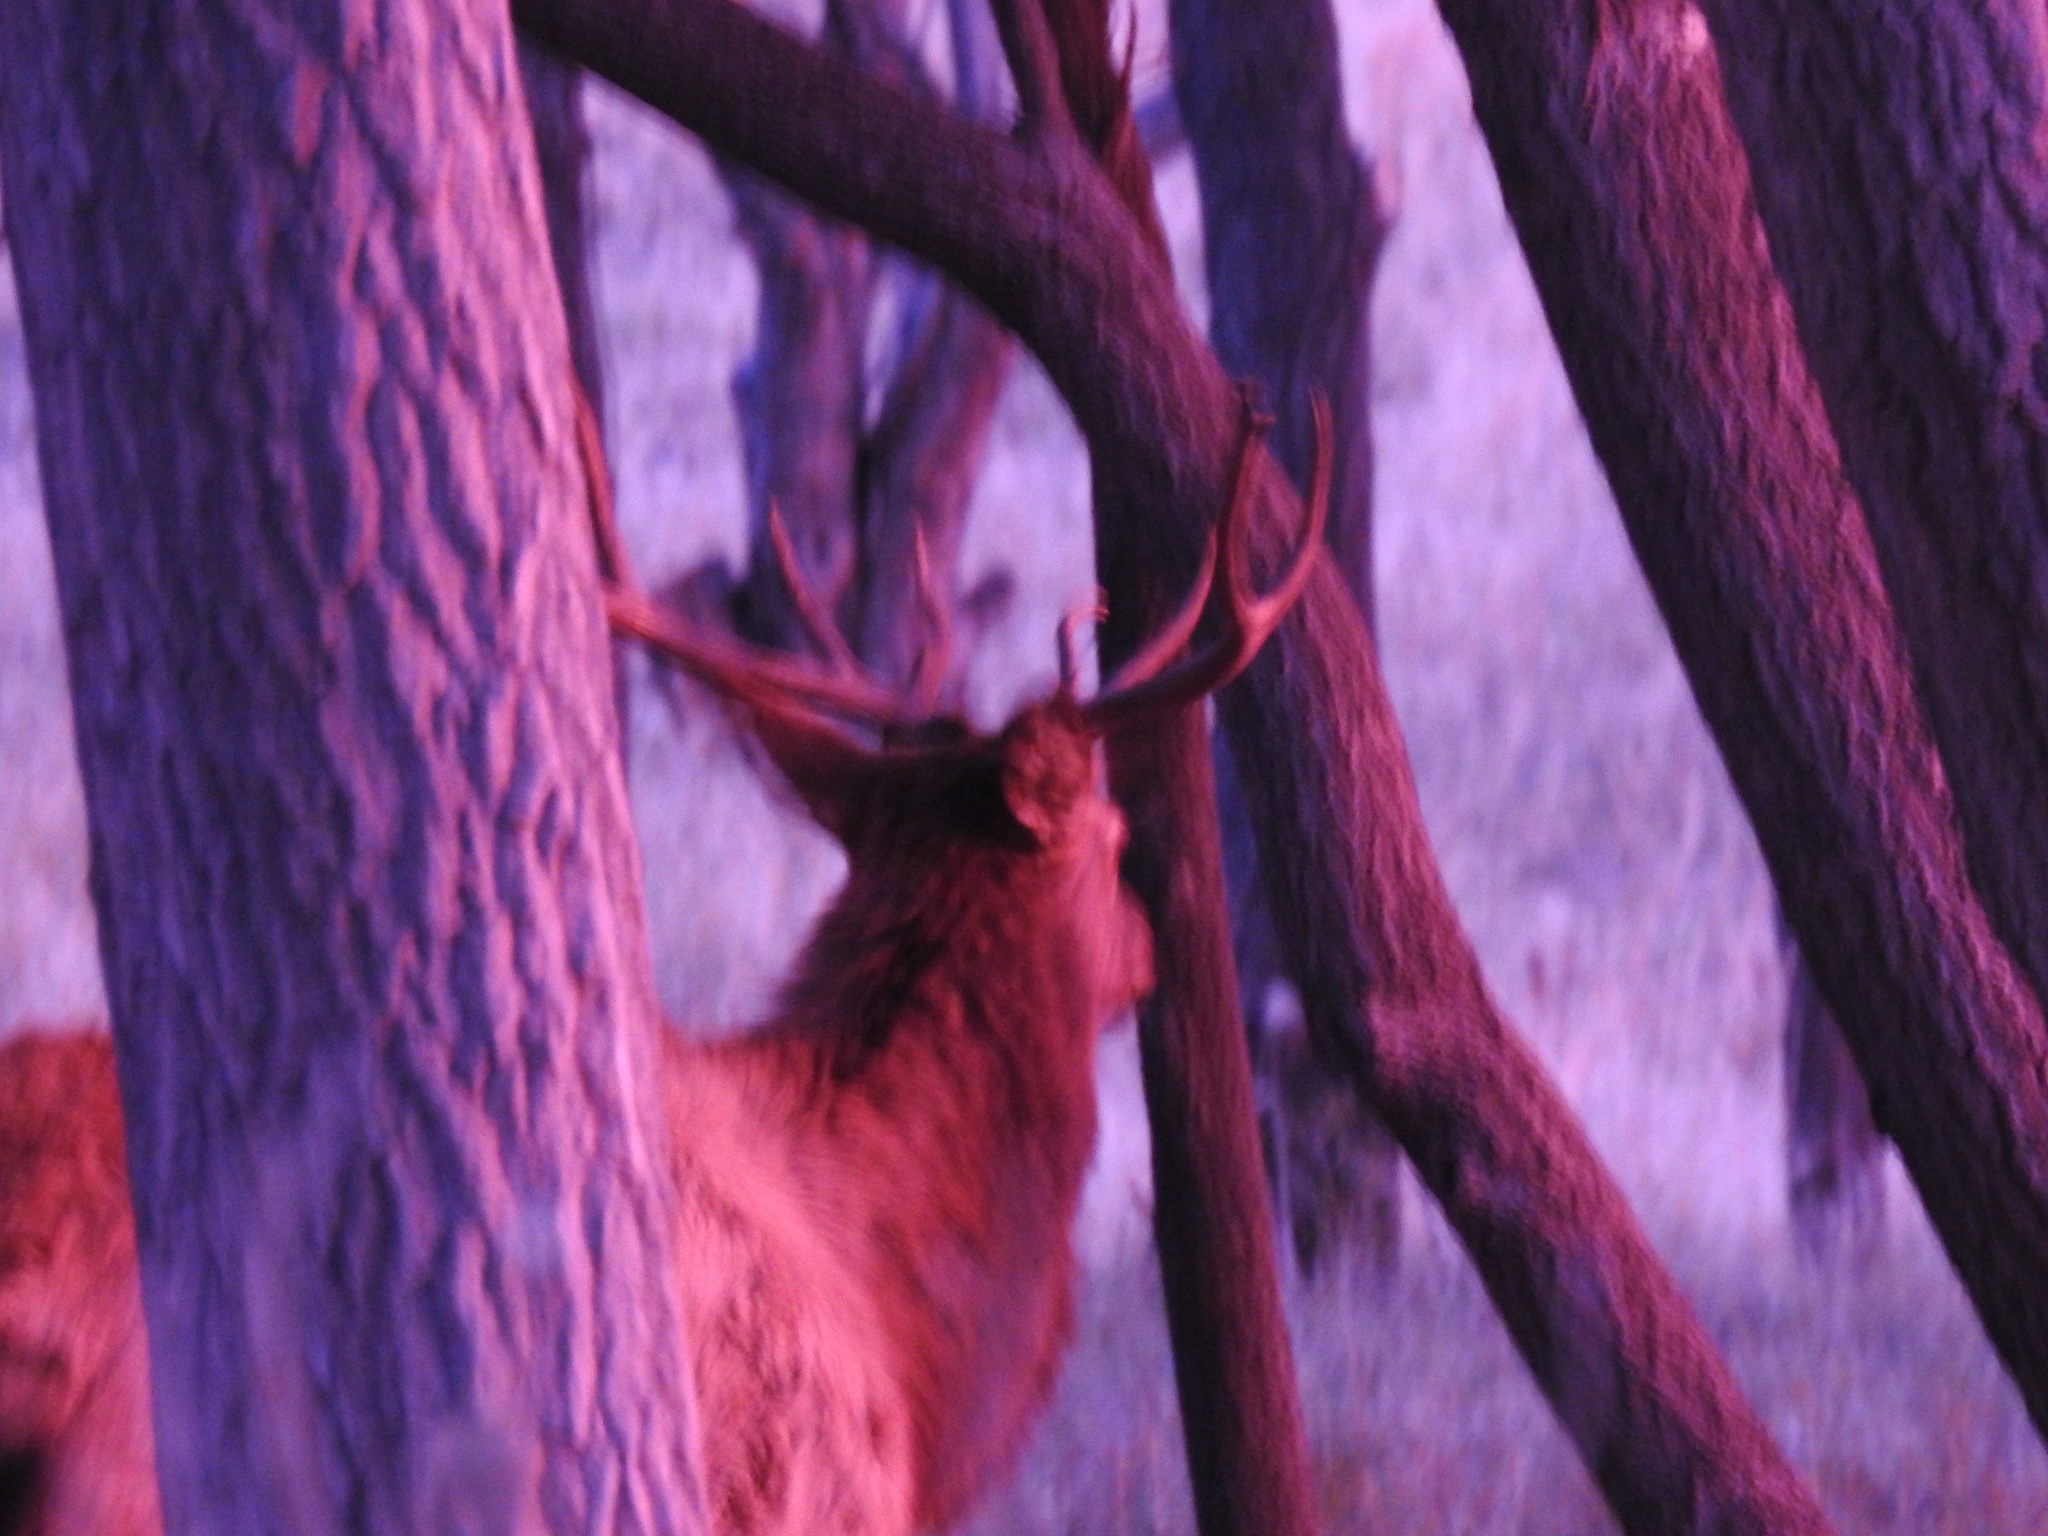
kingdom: Animalia
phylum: Chordata
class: Mammalia
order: Artiodactyla
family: Cervidae
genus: Cervus
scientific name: Cervus elaphus
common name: Red deer
